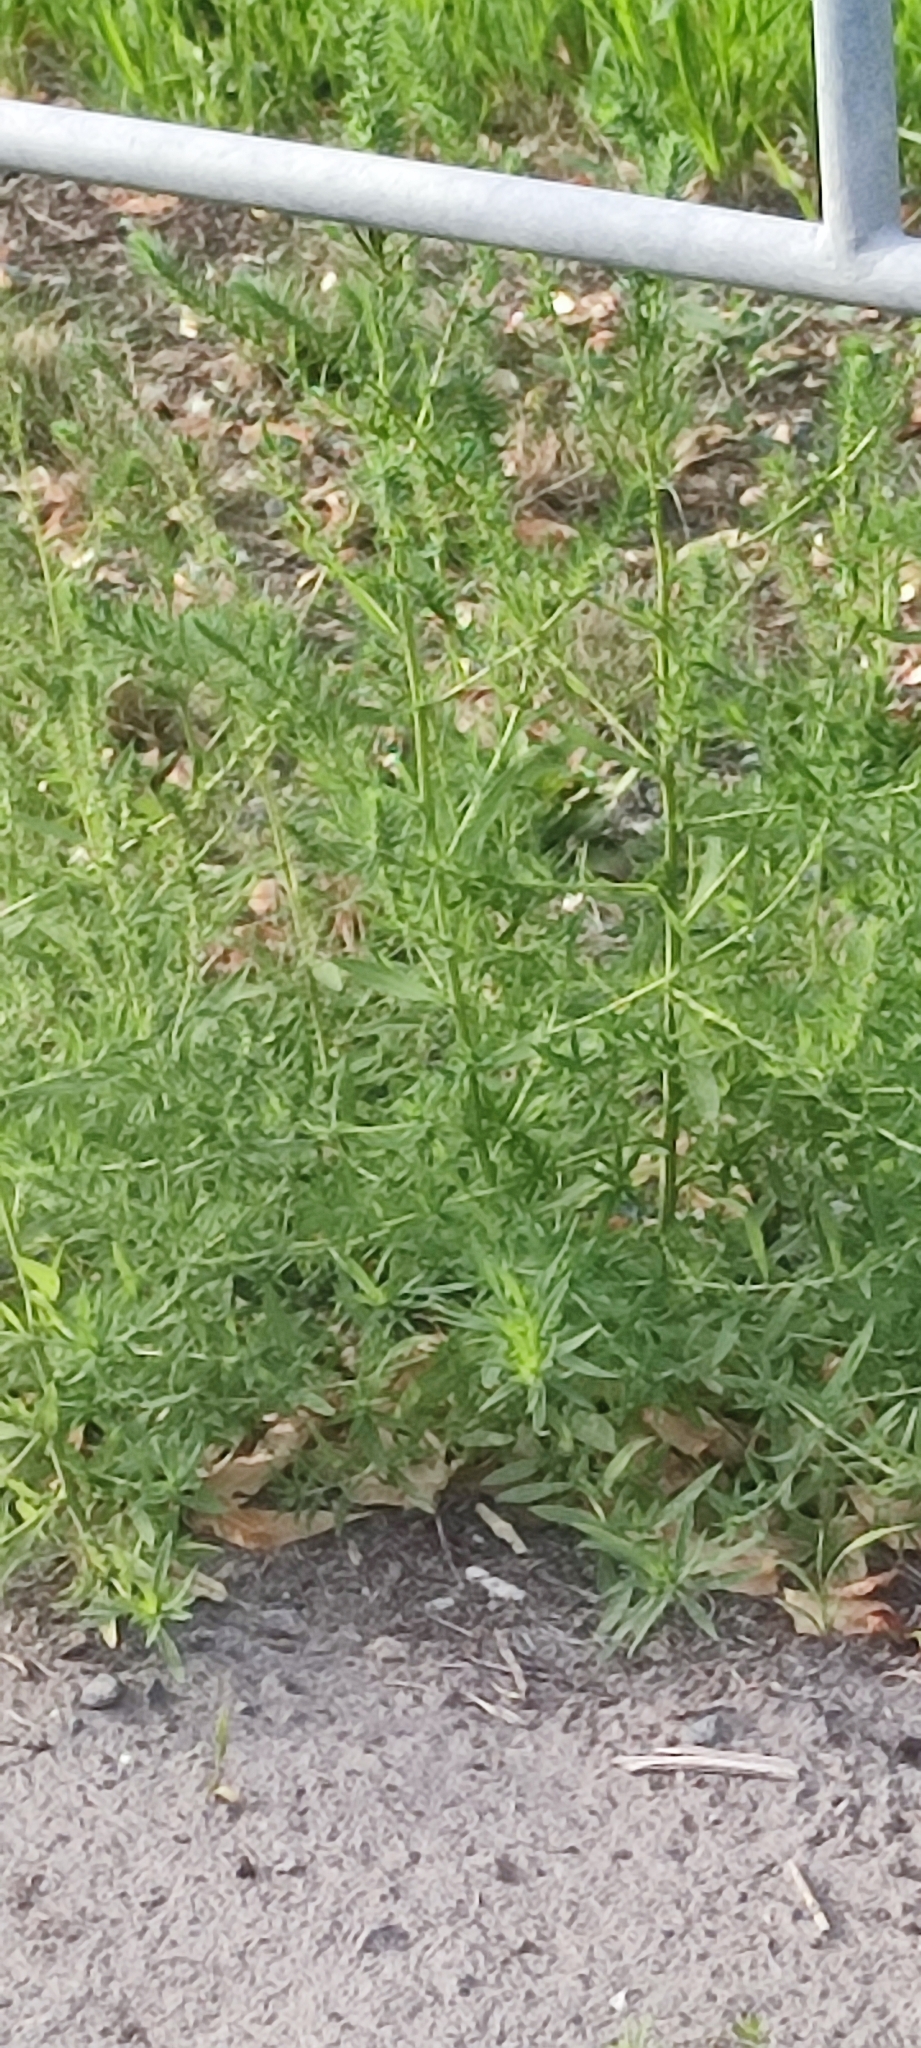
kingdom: Plantae
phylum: Tracheophyta
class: Magnoliopsida
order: Caryophyllales
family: Amaranthaceae
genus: Bassia
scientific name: Bassia scoparia
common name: Belvedere
